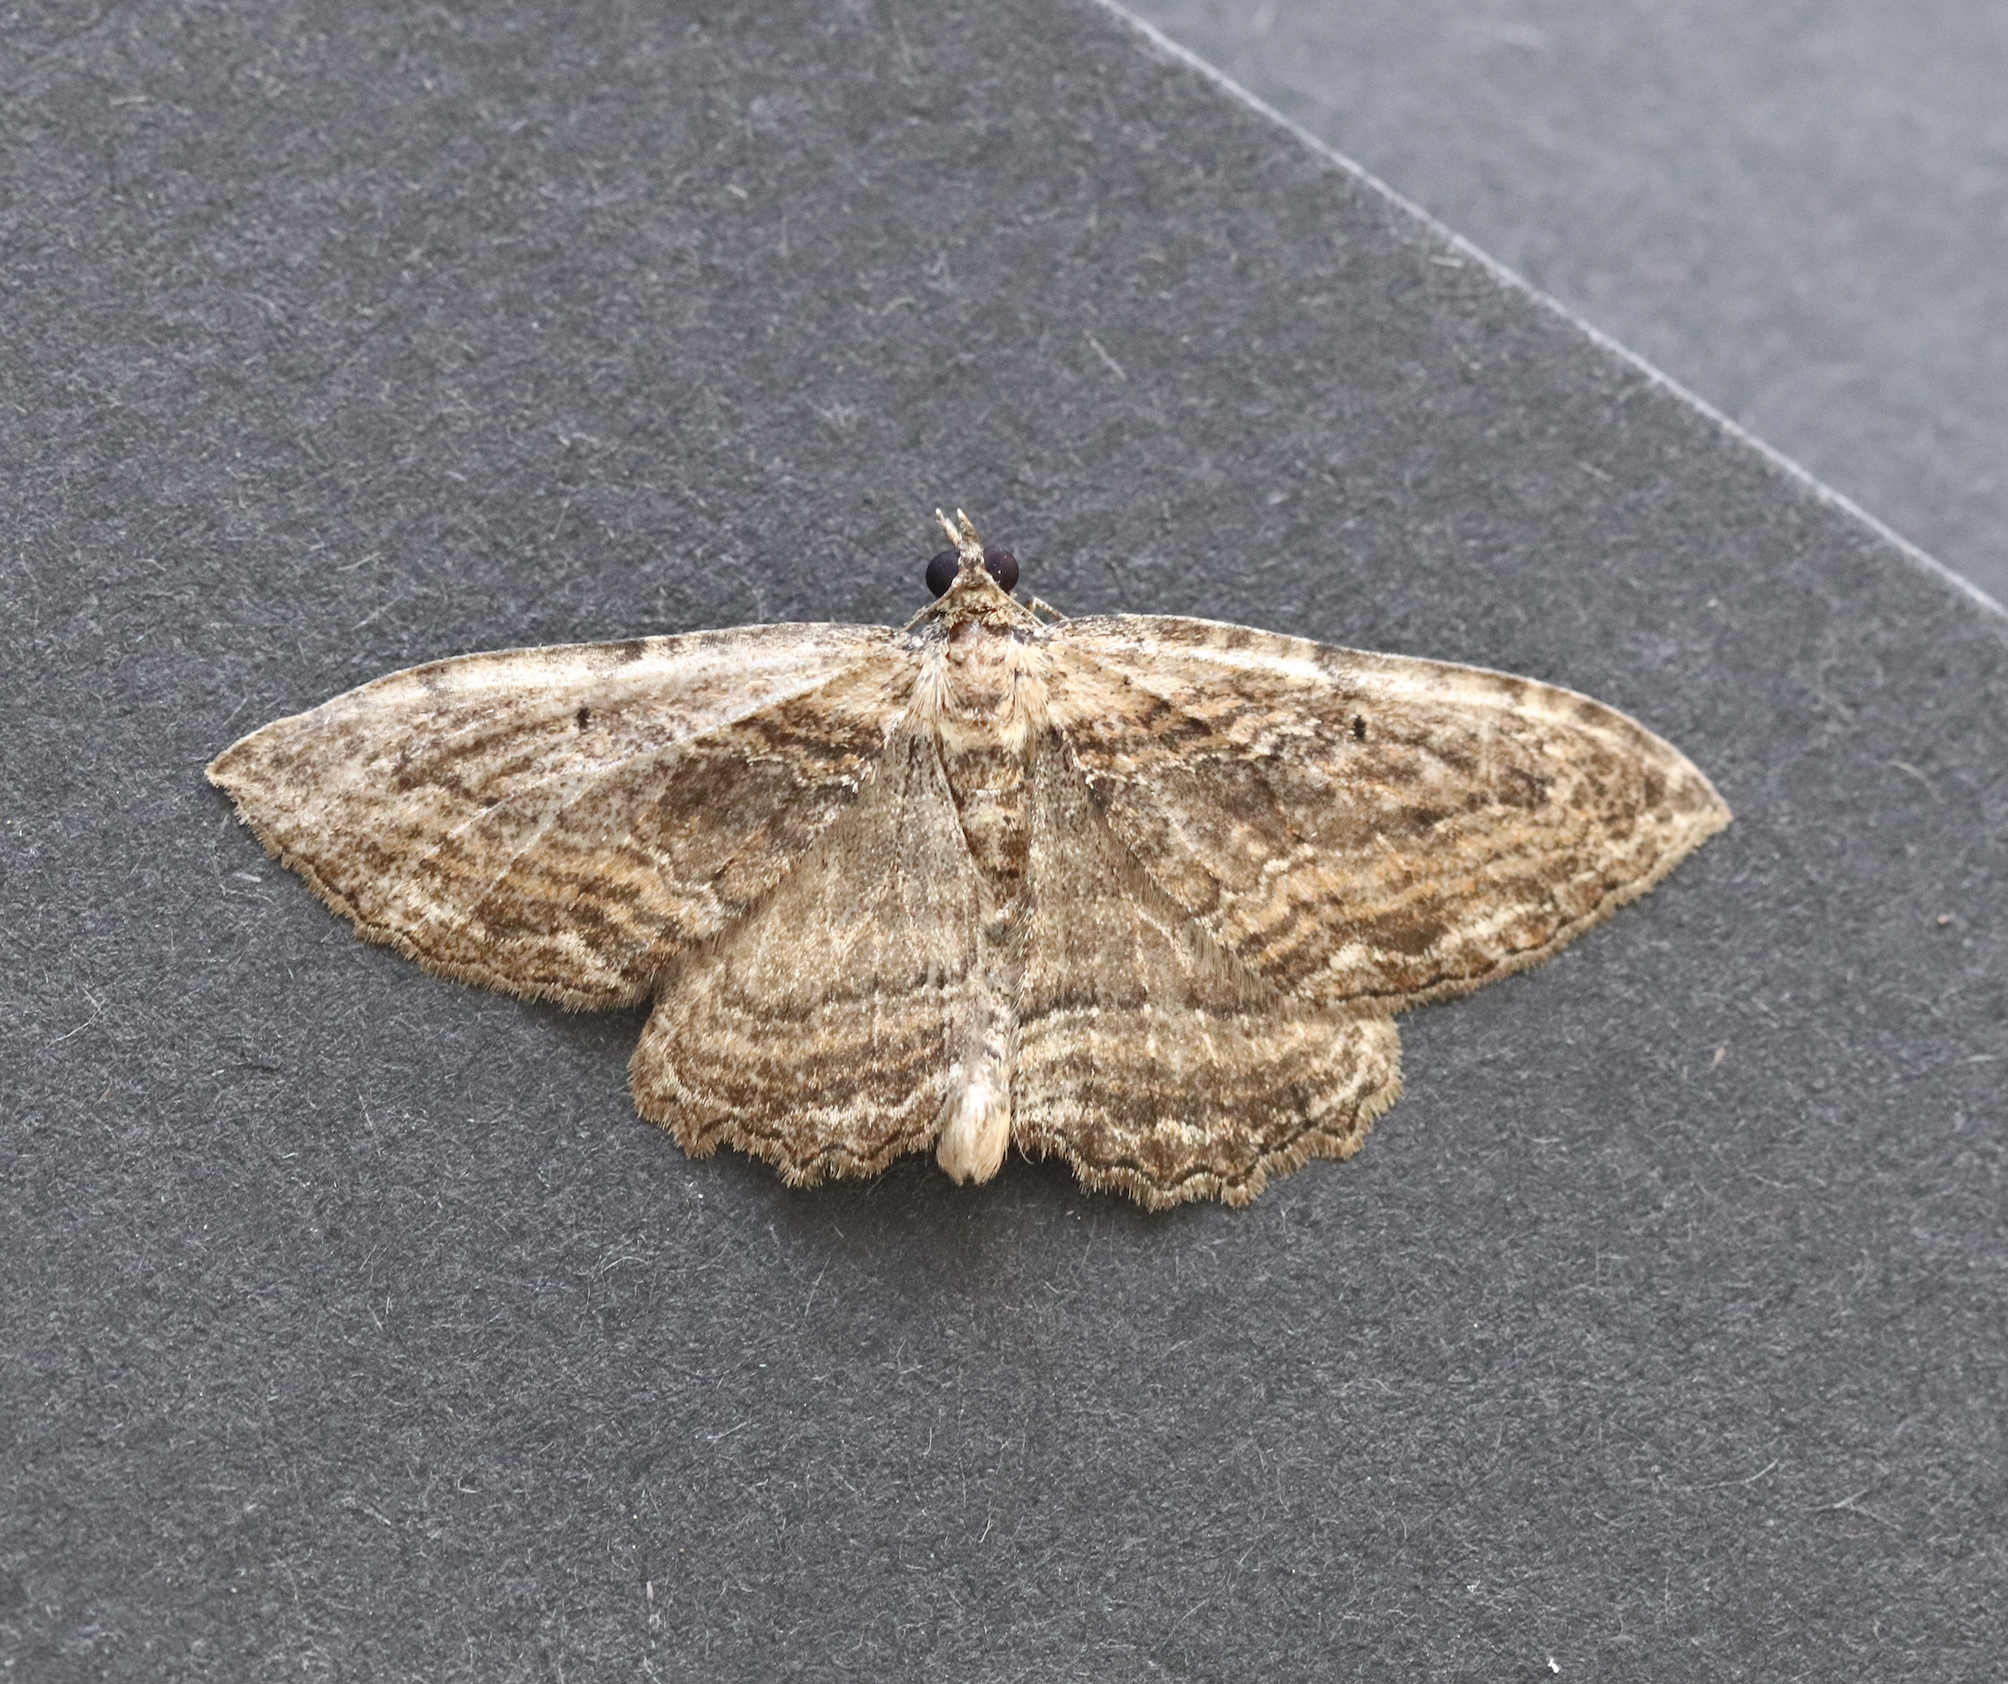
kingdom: Animalia
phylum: Arthropoda
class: Insecta
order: Lepidoptera
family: Geometridae
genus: Philereme
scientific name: Philereme transversata
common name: Dark umber
